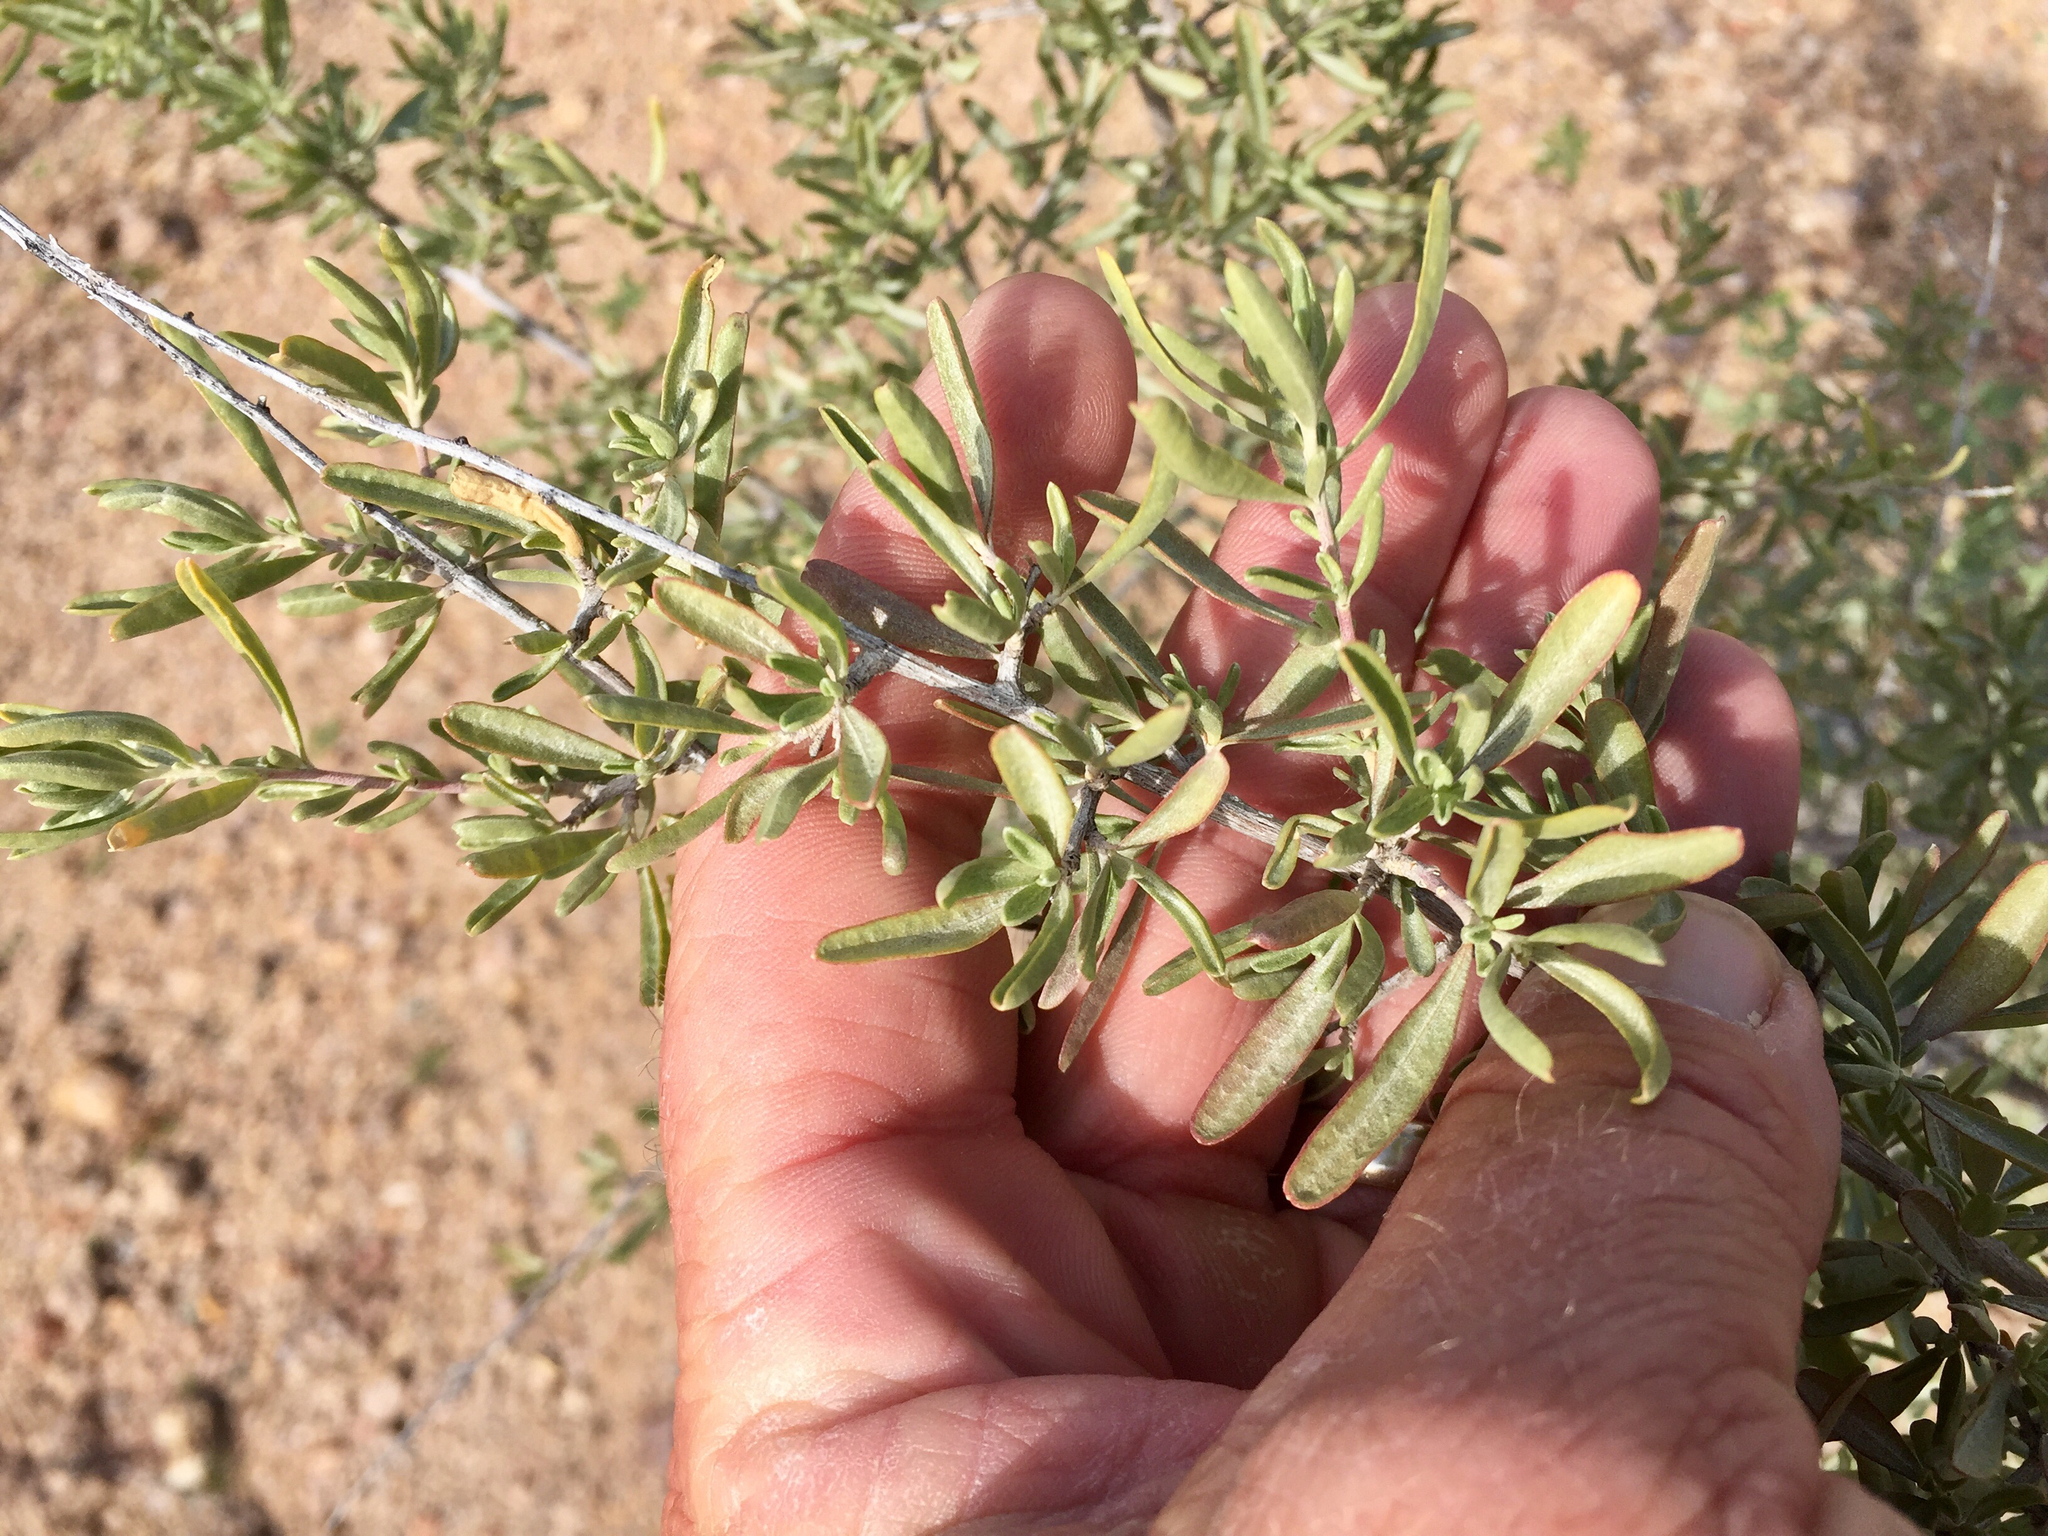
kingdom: Plantae
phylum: Tracheophyta
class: Magnoliopsida
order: Caryophyllales
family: Amaranthaceae
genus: Atriplex
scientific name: Atriplex canescens
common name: Four-wing saltbush
